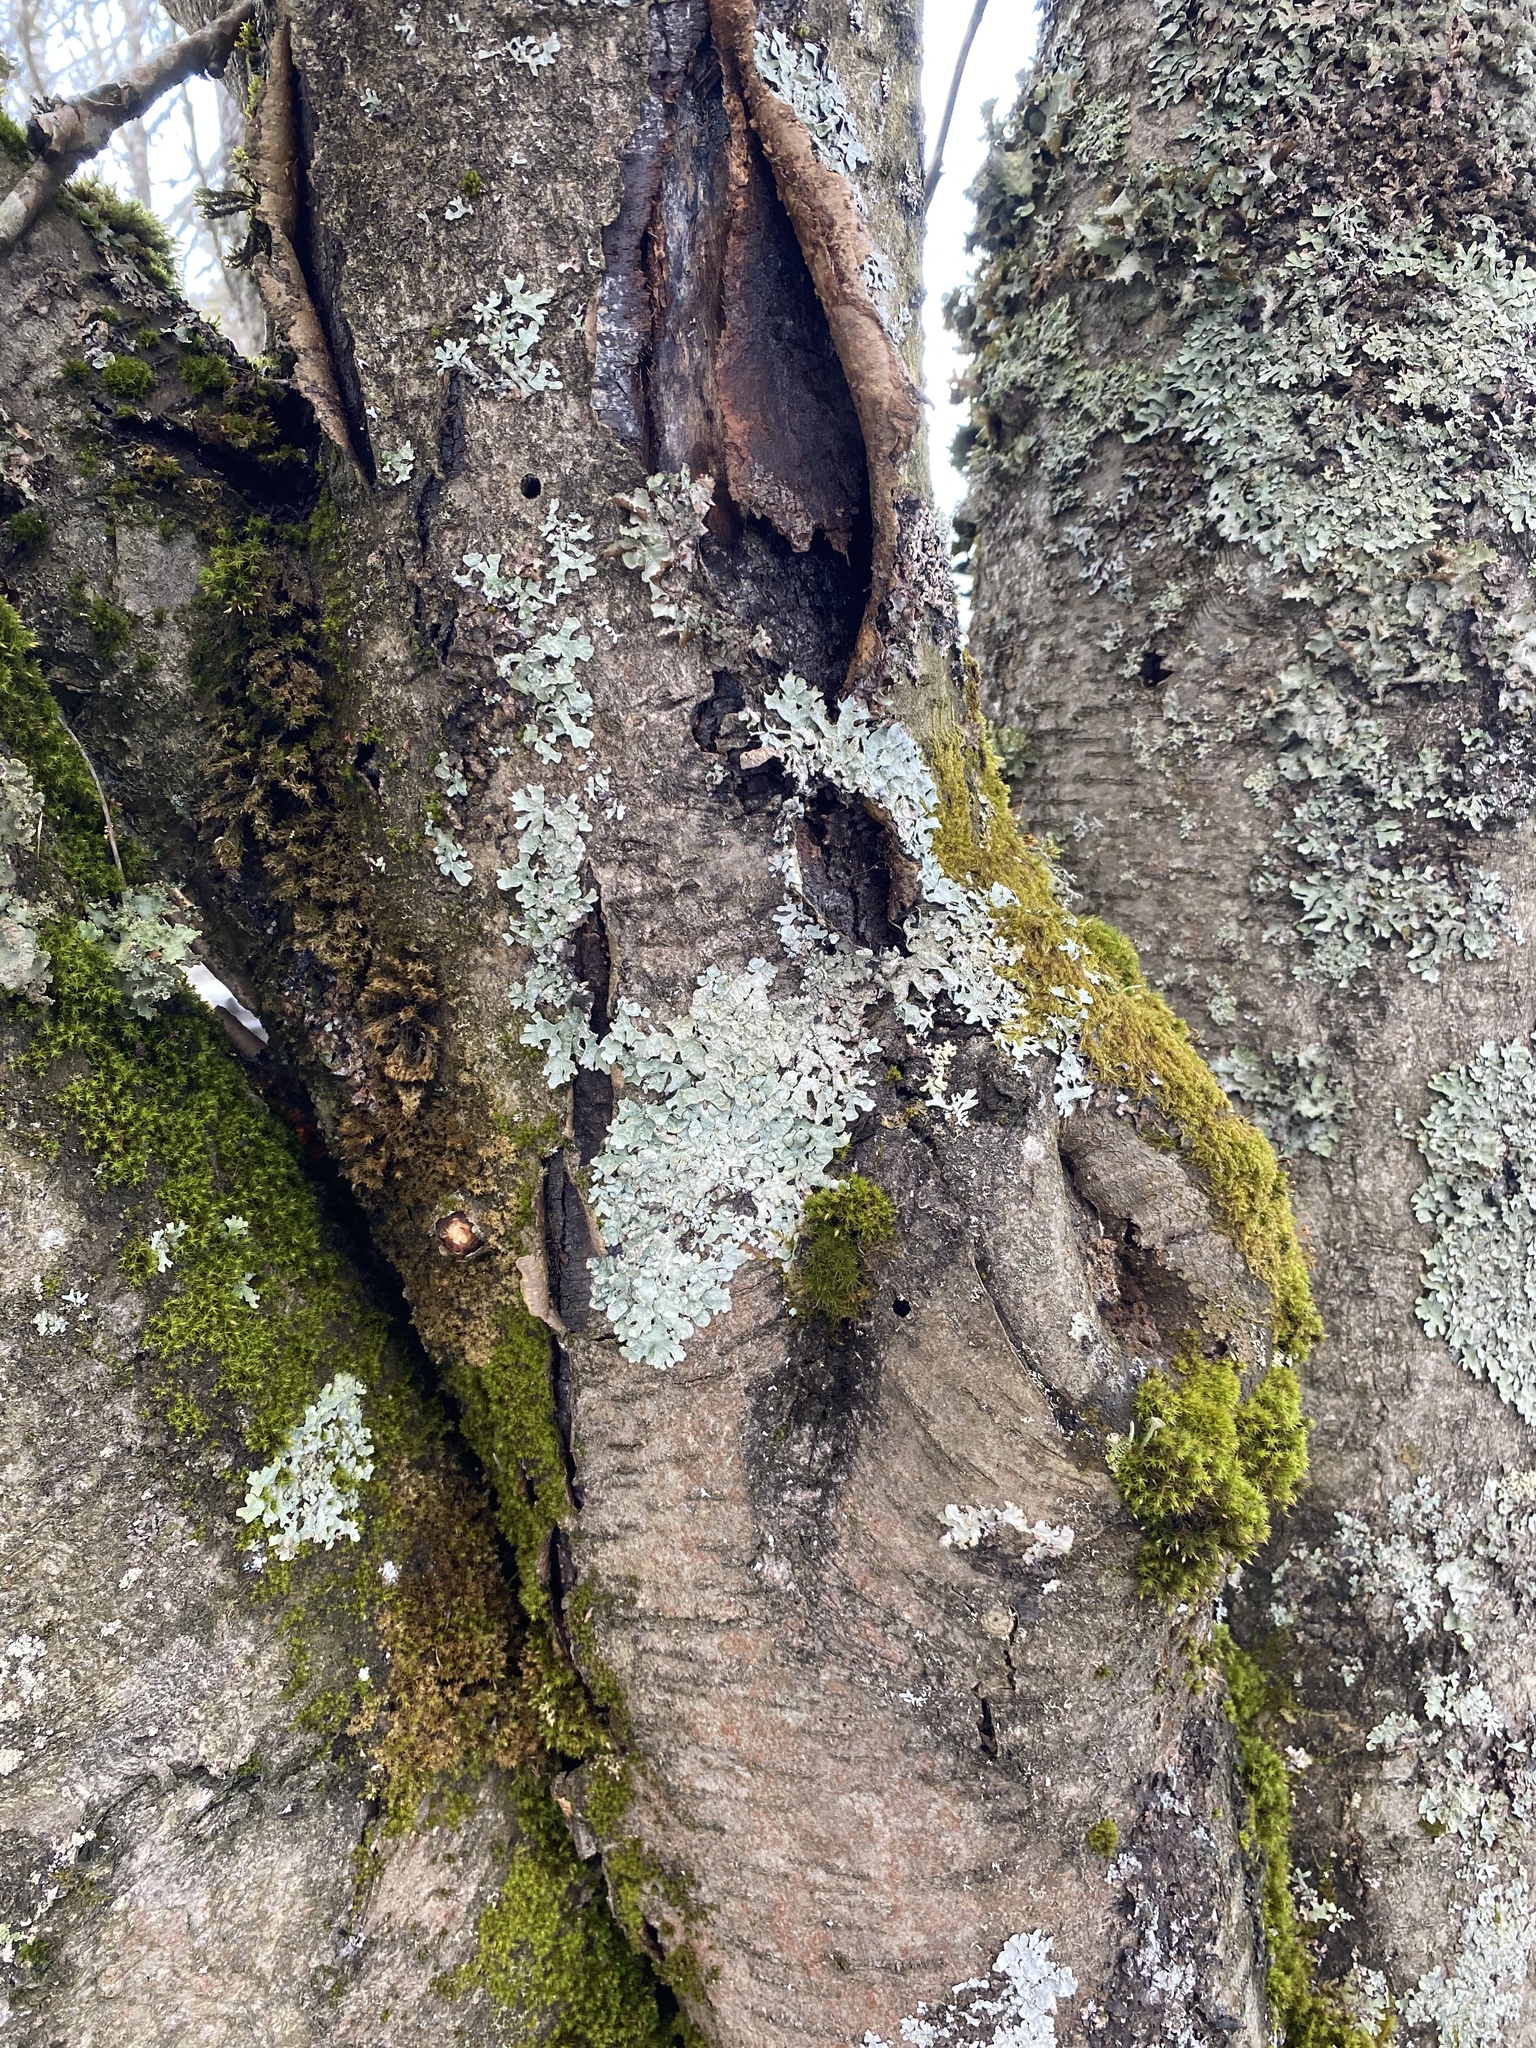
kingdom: Fungi
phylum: Ascomycota
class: Lecanoromycetes
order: Lecanorales
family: Parmeliaceae
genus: Parmelia
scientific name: Parmelia sulcata
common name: Netted shield lichen
